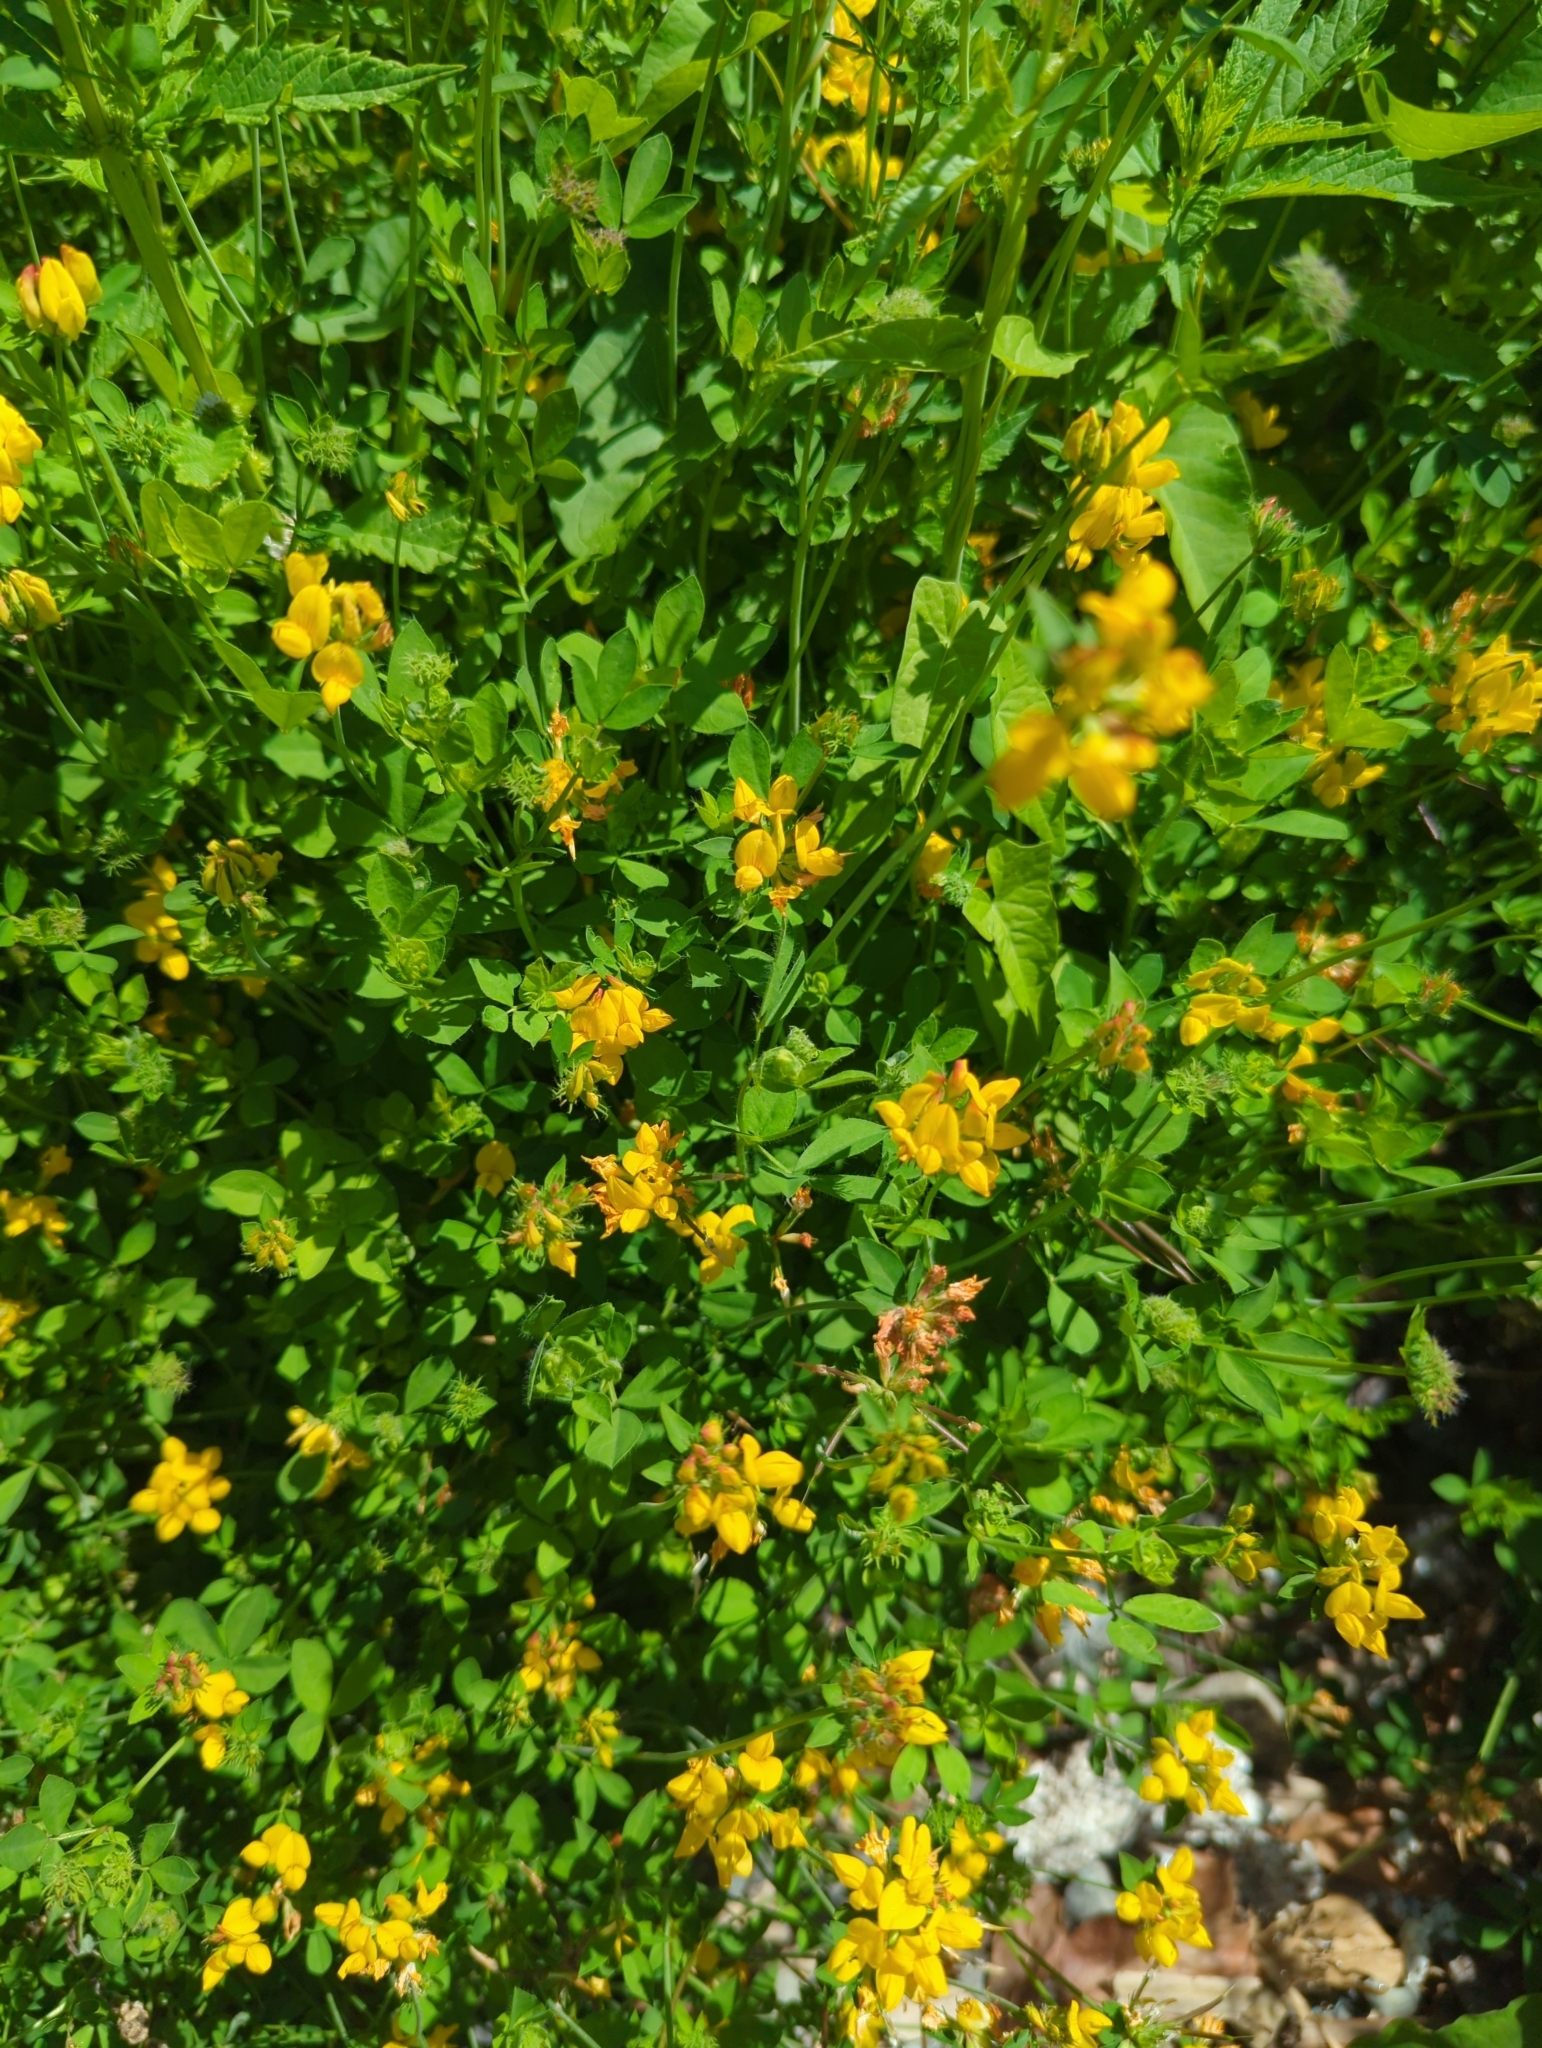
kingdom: Plantae
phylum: Tracheophyta
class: Magnoliopsida
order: Fabales
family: Fabaceae
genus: Lotus
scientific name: Lotus pedunculatus
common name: Greater birdsfoot-trefoil
